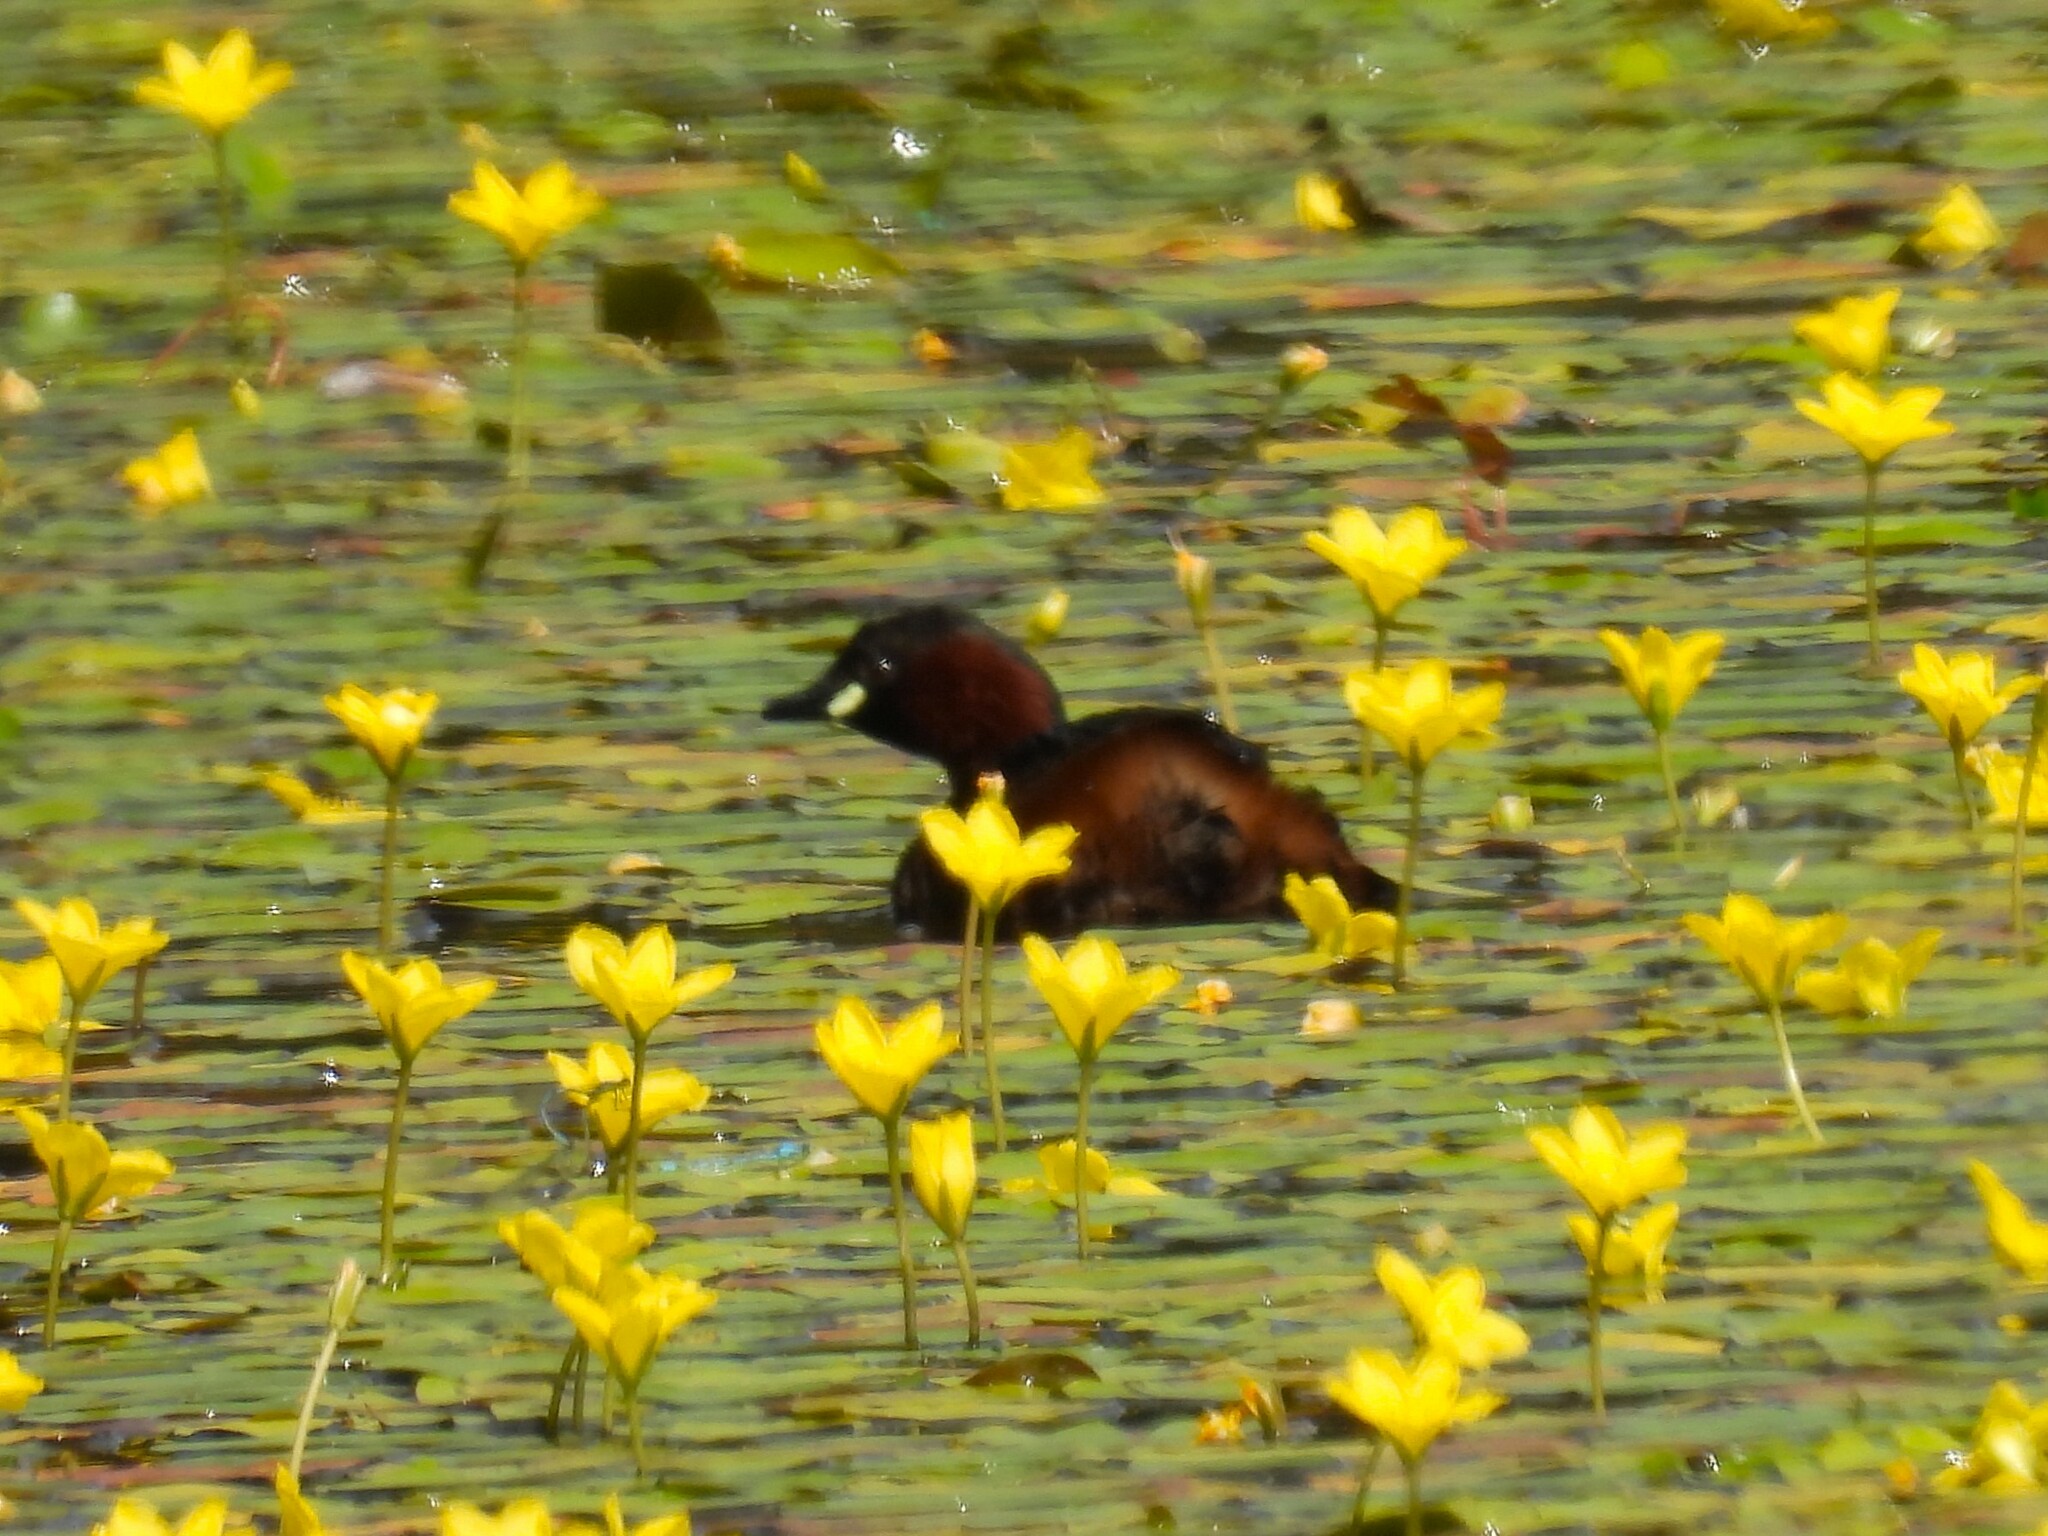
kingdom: Animalia
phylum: Chordata
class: Aves
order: Podicipediformes
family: Podicipedidae
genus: Tachybaptus
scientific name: Tachybaptus ruficollis
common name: Little grebe
